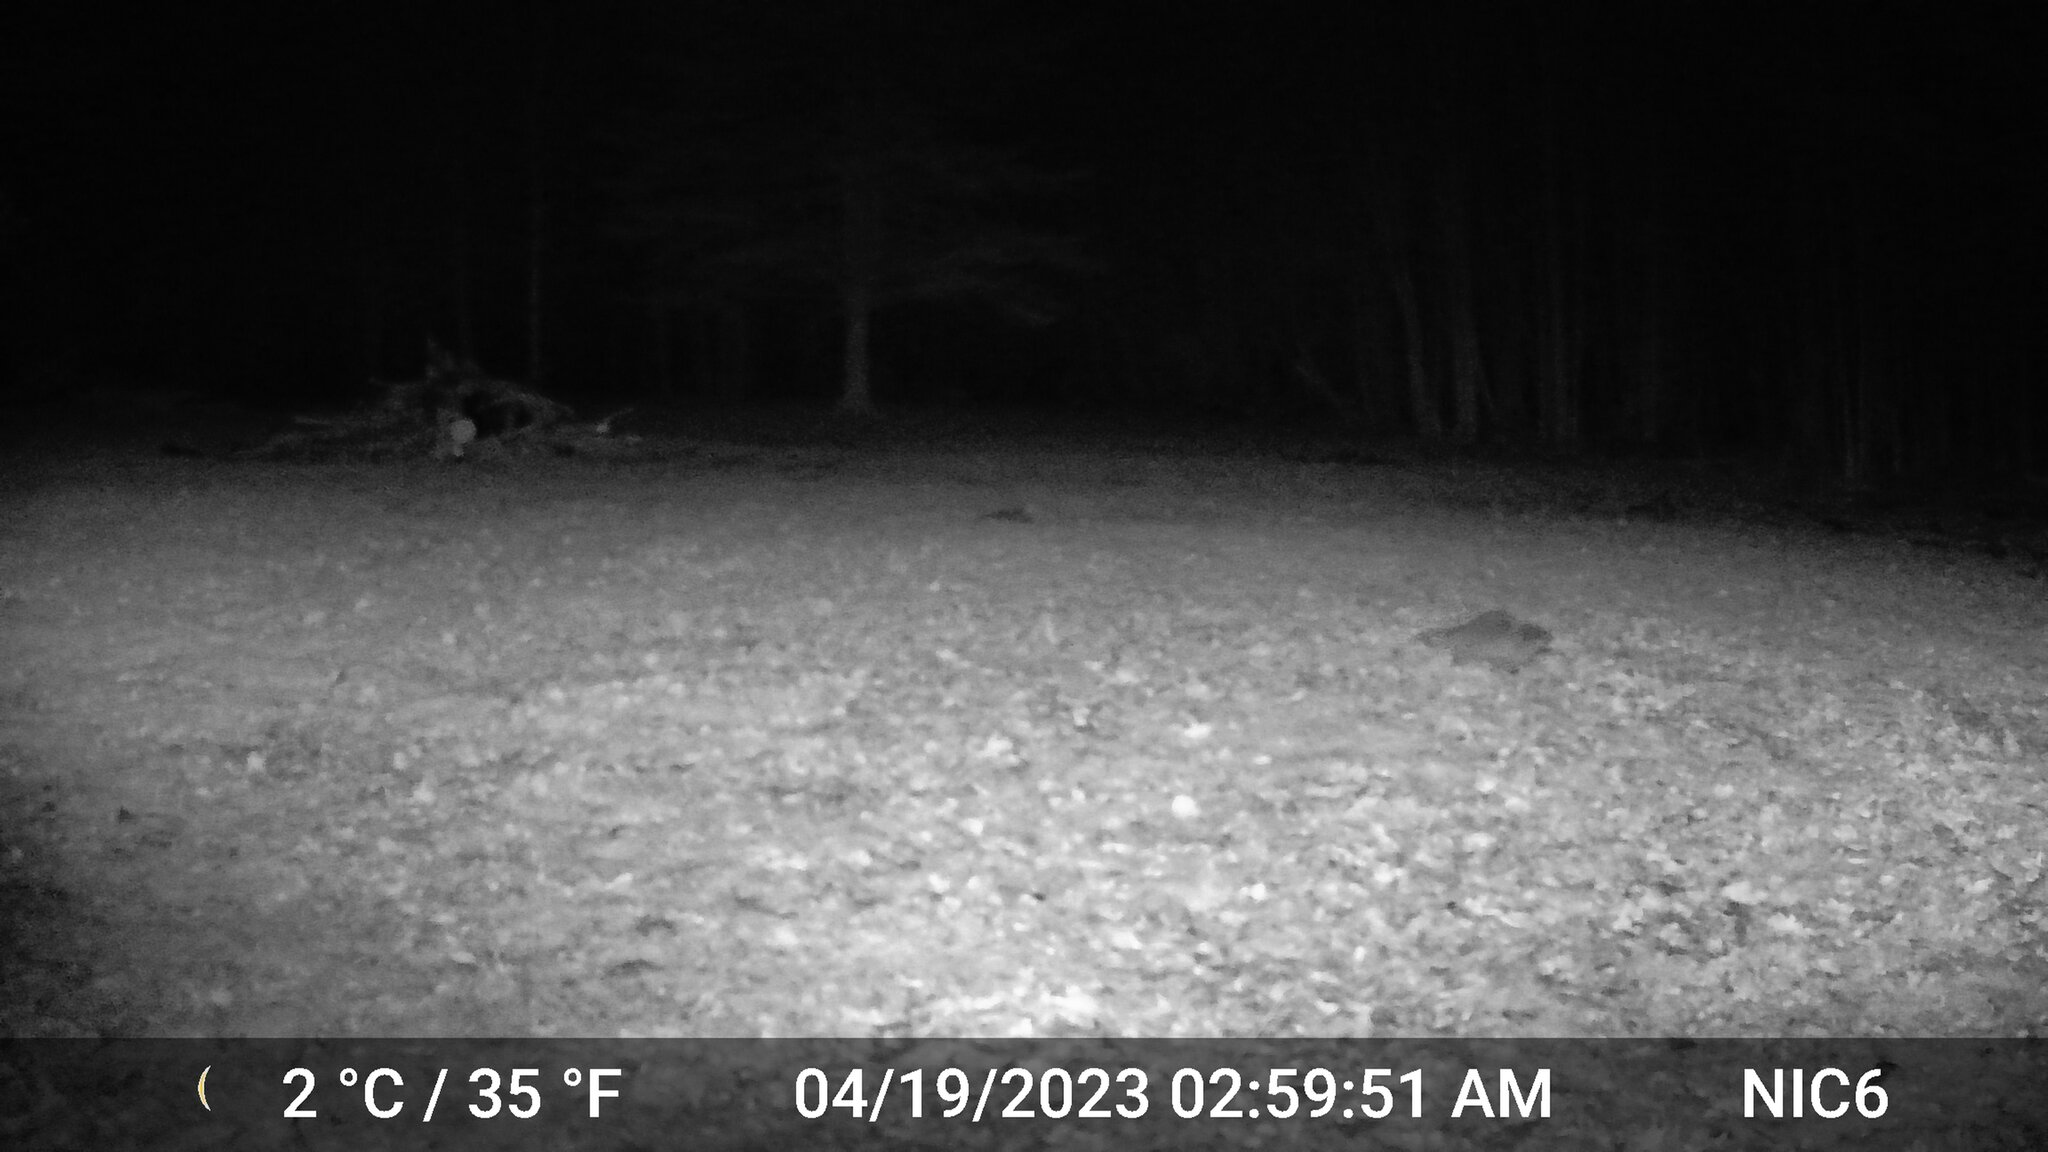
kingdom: Animalia
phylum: Chordata
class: Mammalia
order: Carnivora
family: Procyonidae
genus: Procyon
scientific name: Procyon lotor
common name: Raccoon
